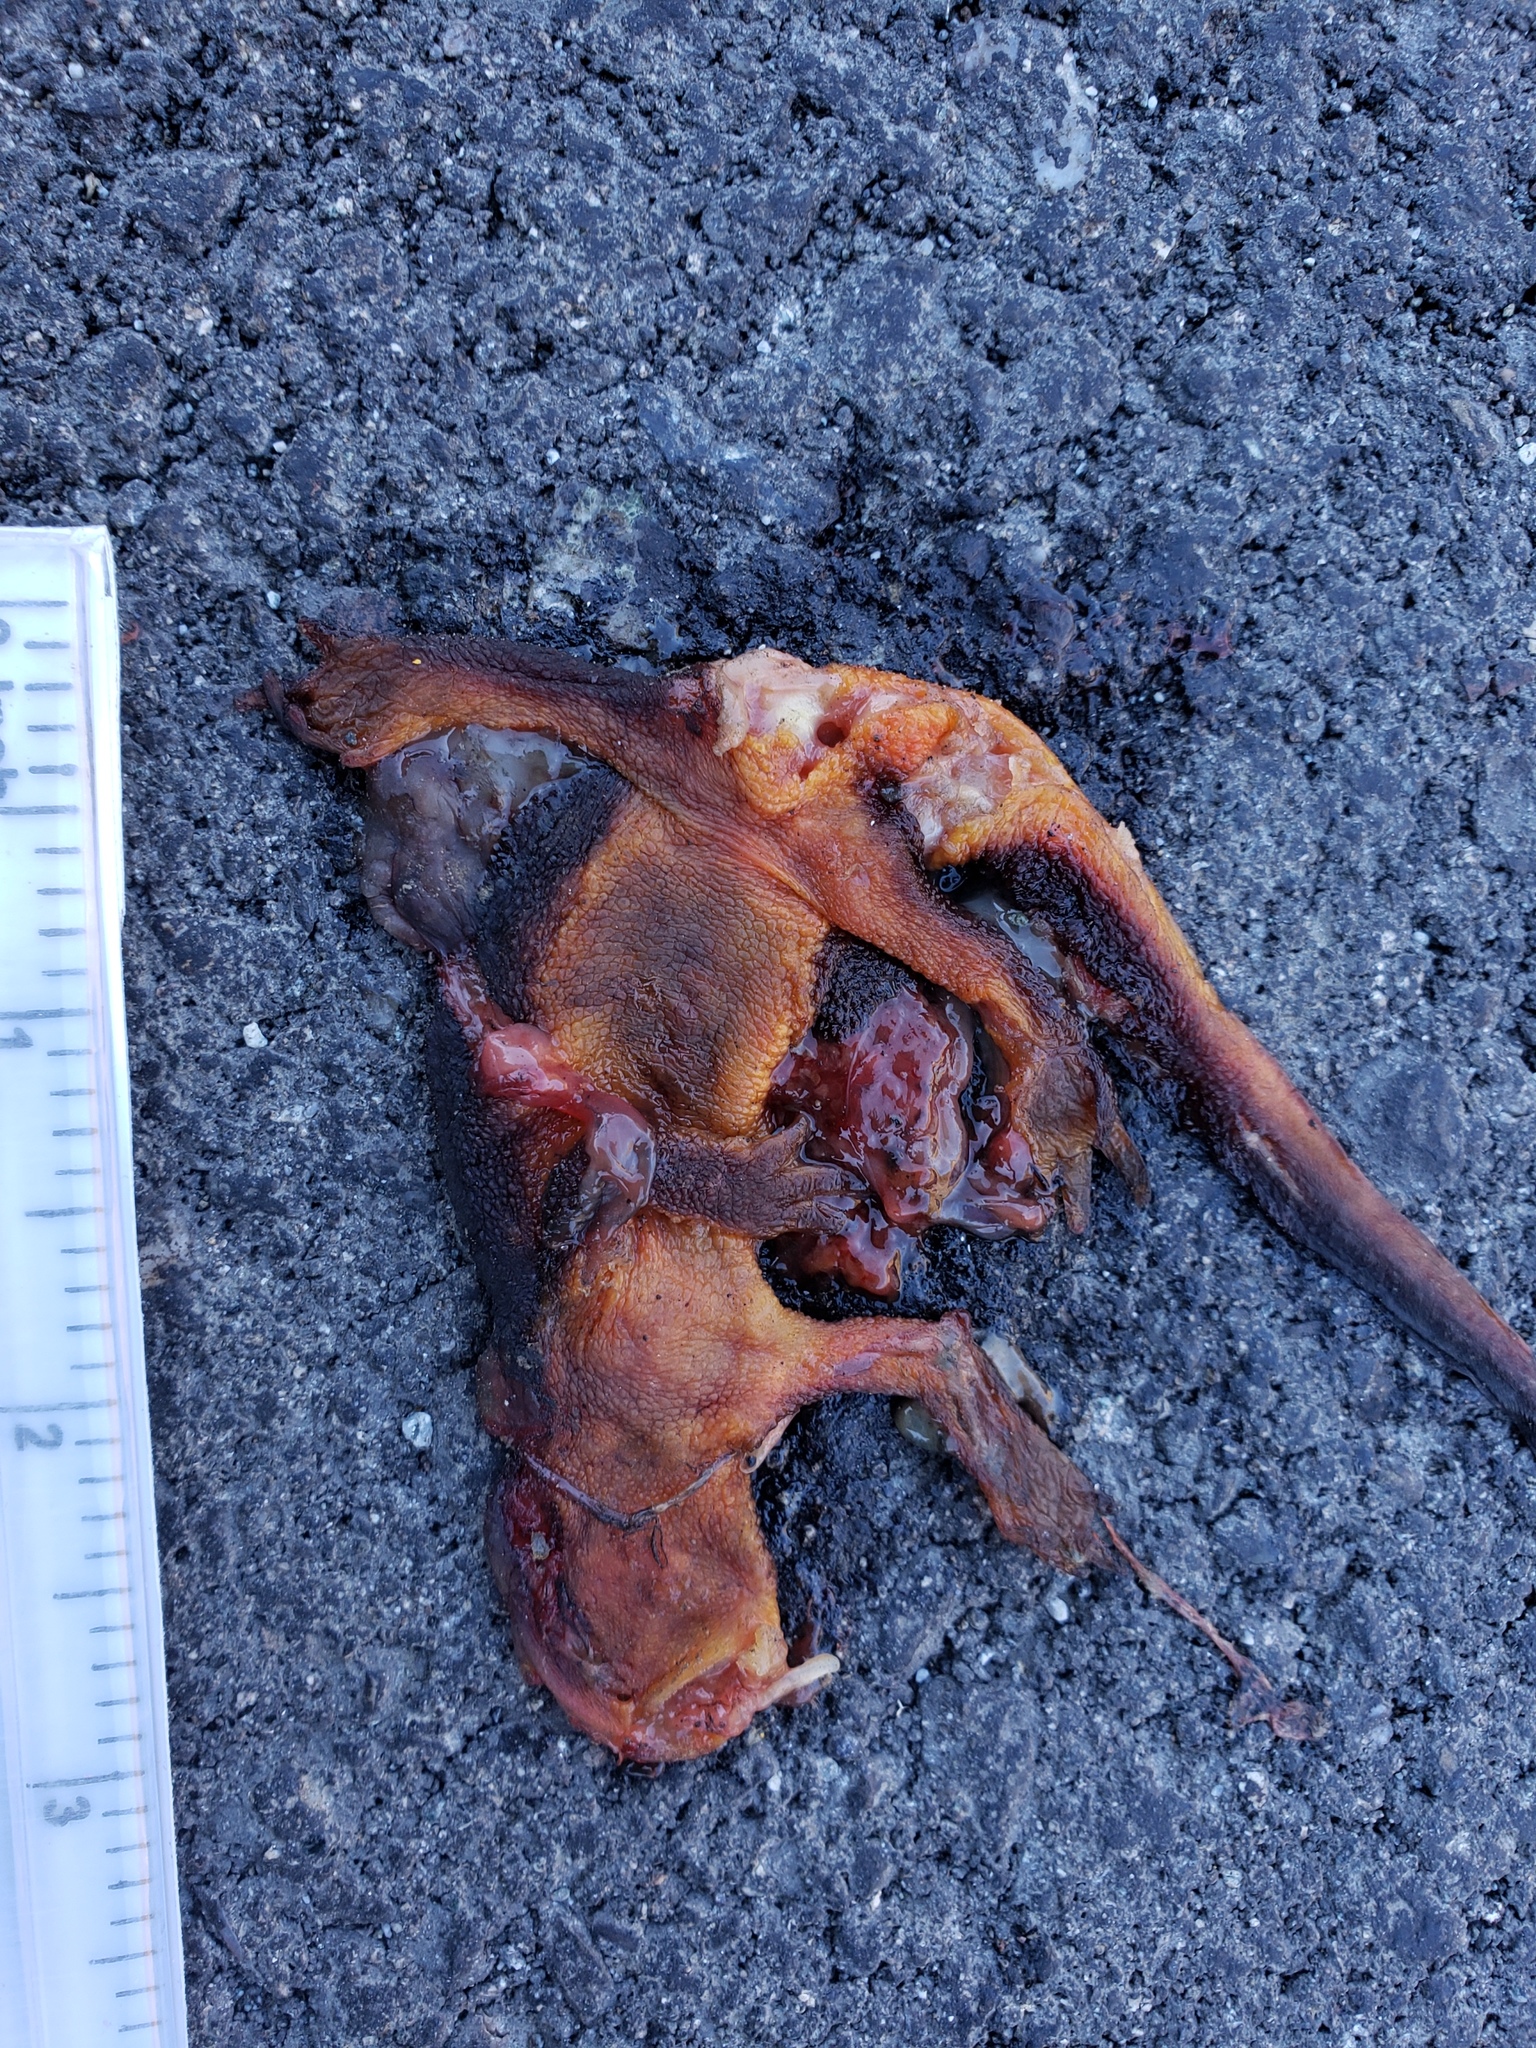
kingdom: Animalia
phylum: Chordata
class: Amphibia
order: Caudata
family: Salamandridae
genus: Taricha
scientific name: Taricha
